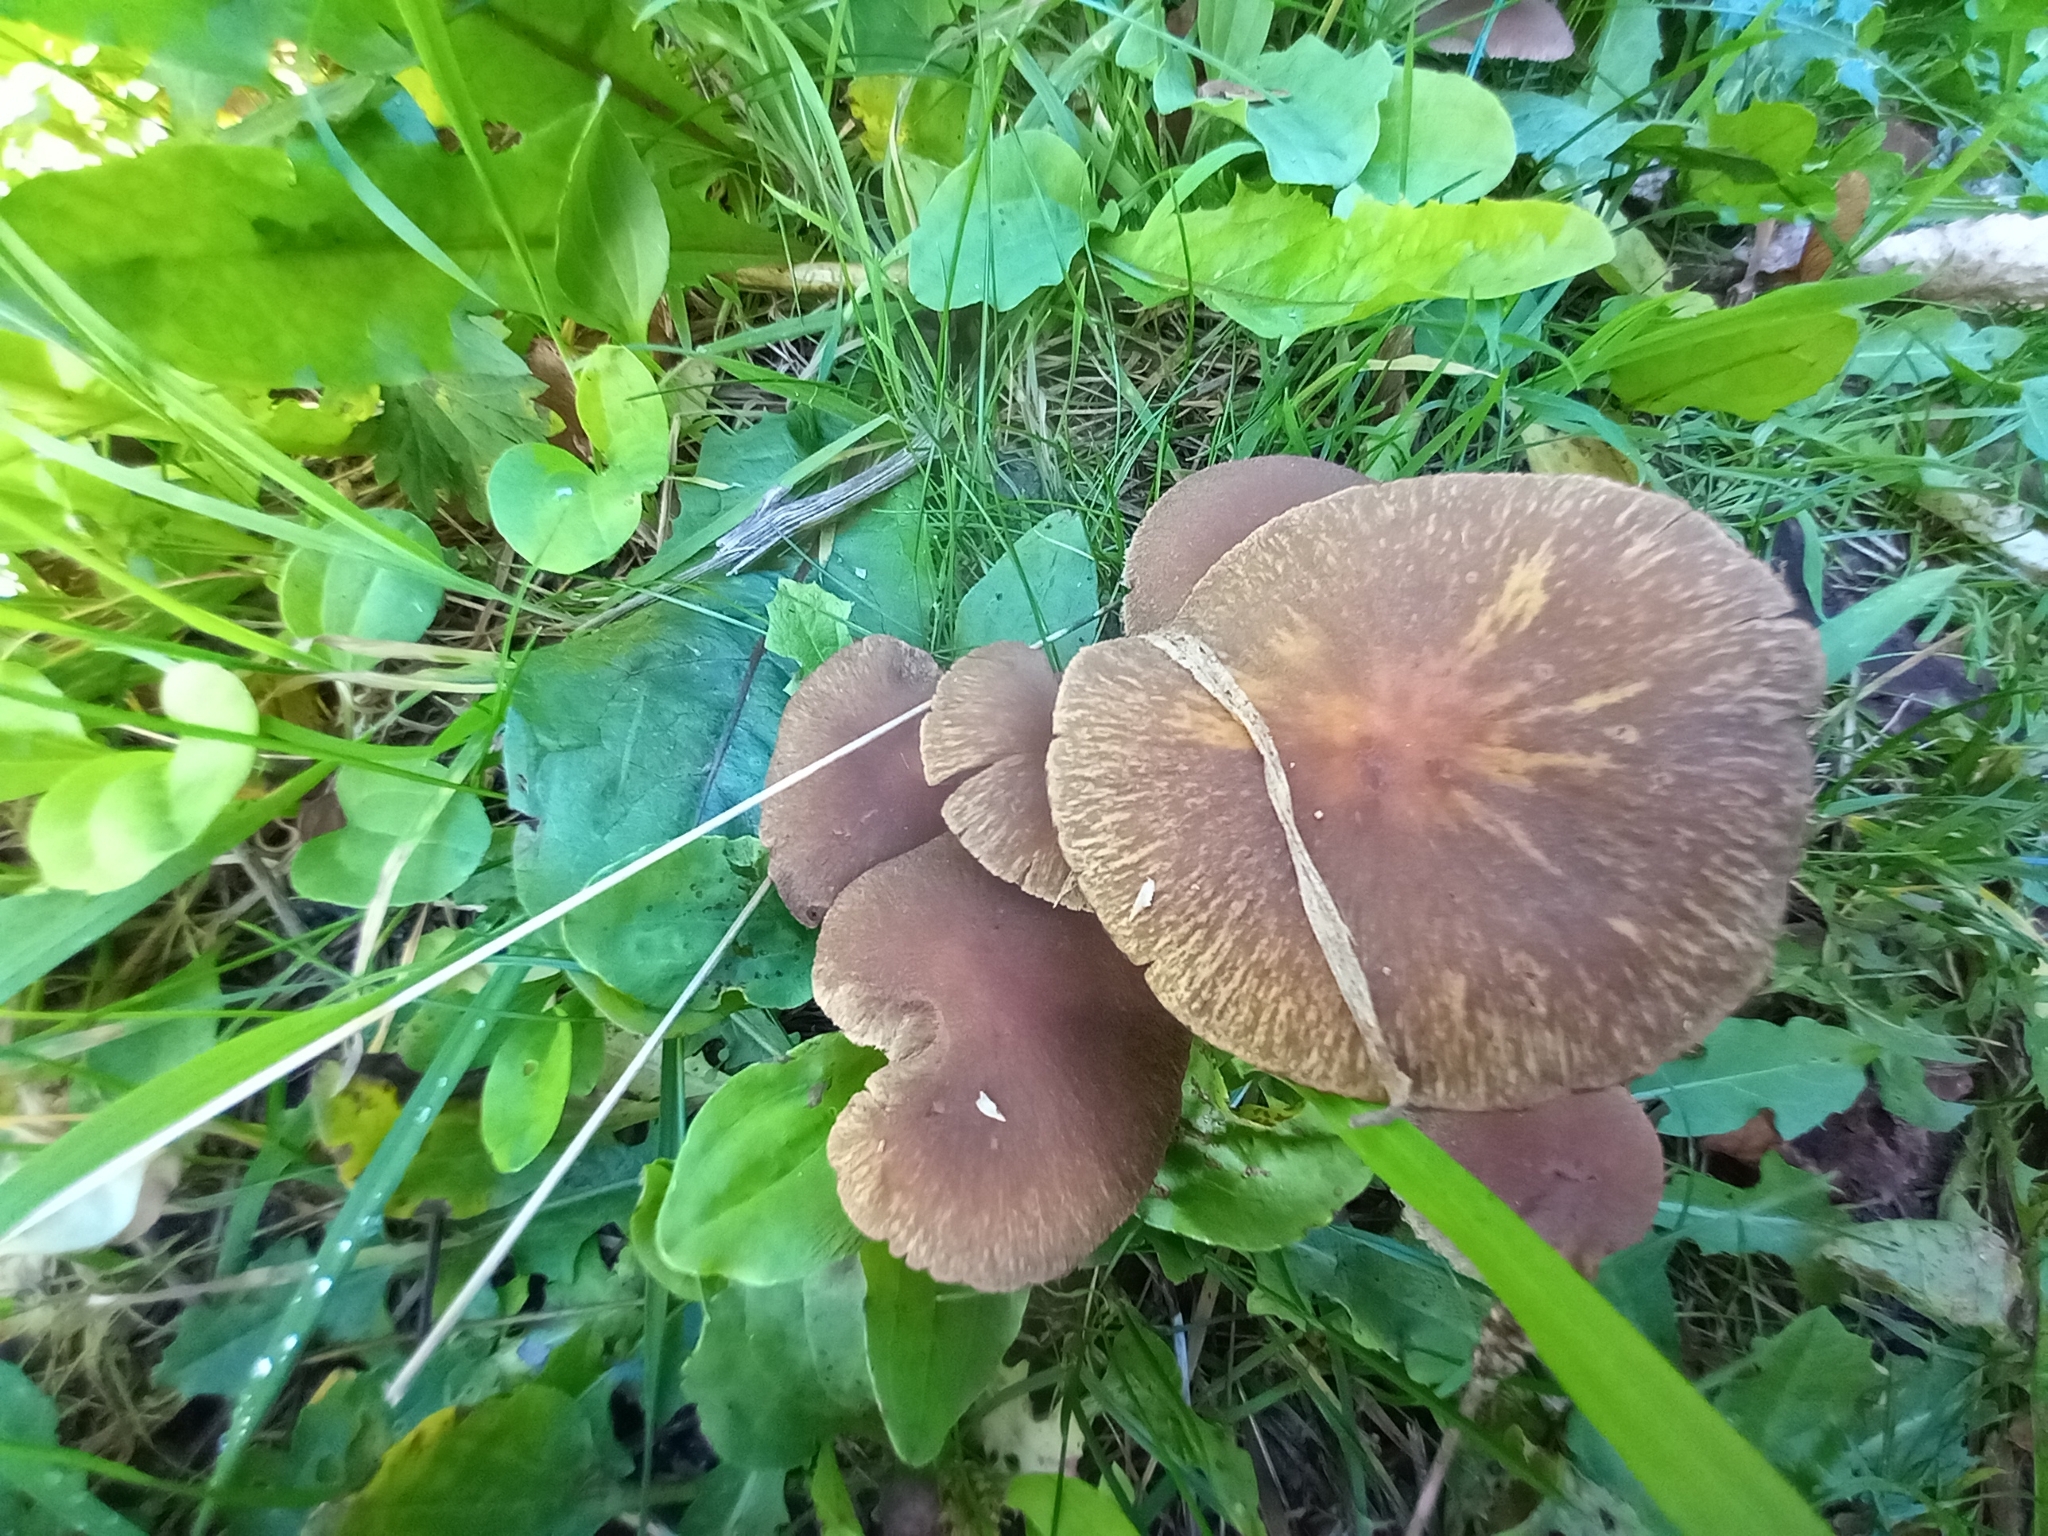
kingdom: Fungi
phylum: Basidiomycota
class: Agaricomycetes
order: Agaricales
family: Psathyrellaceae
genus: Lacrymaria
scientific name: Lacrymaria lacrymabunda
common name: Weeping widow
